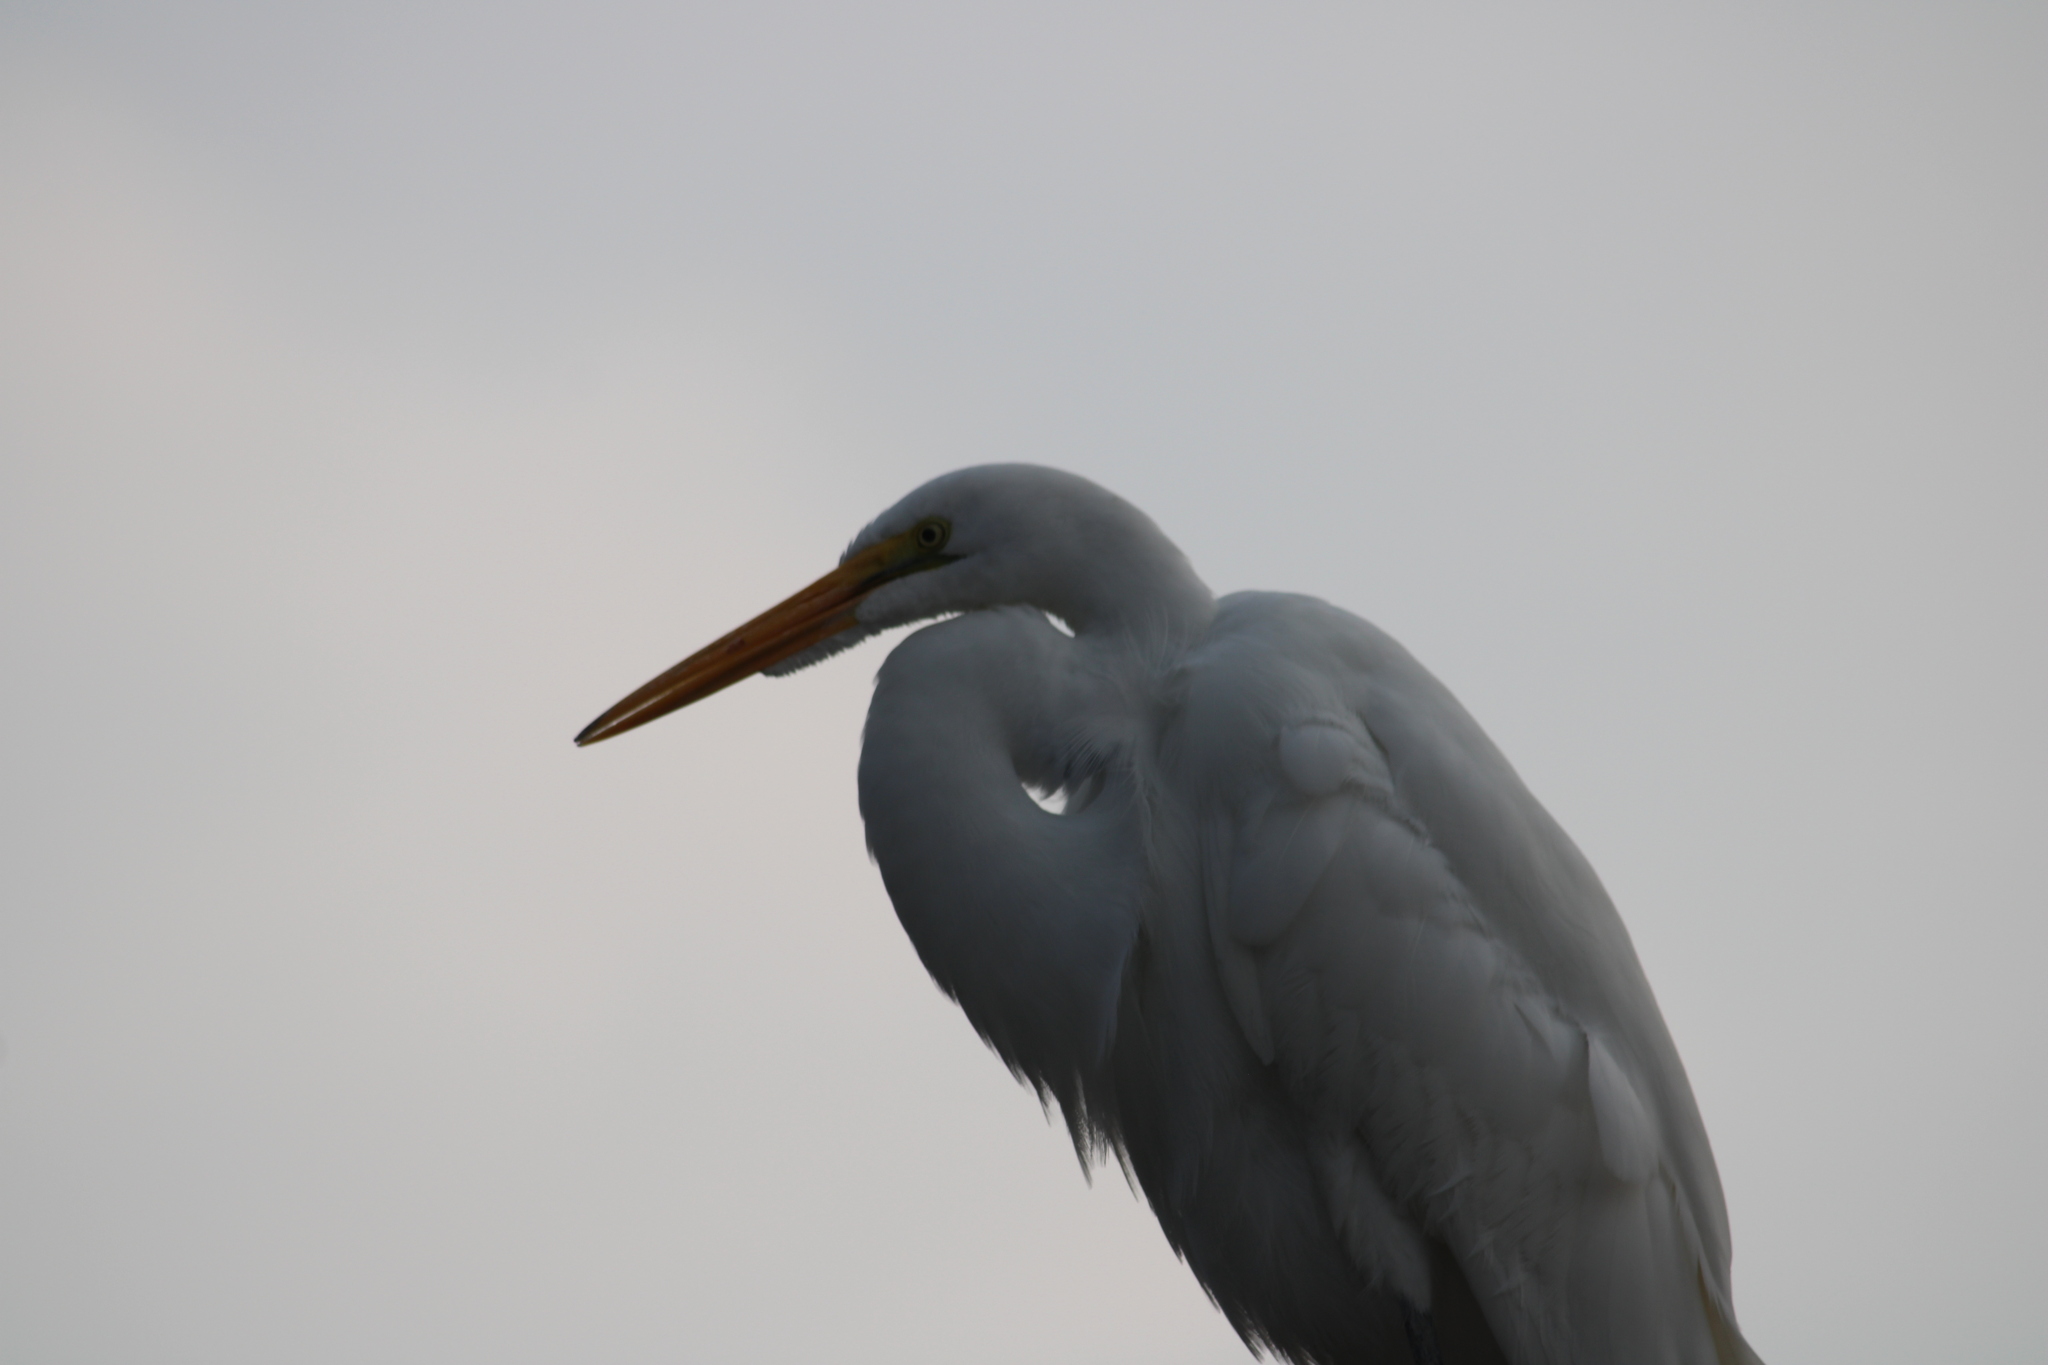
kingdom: Animalia
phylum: Chordata
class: Aves
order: Pelecaniformes
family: Ardeidae
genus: Ardea
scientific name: Ardea alba
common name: Great egret
